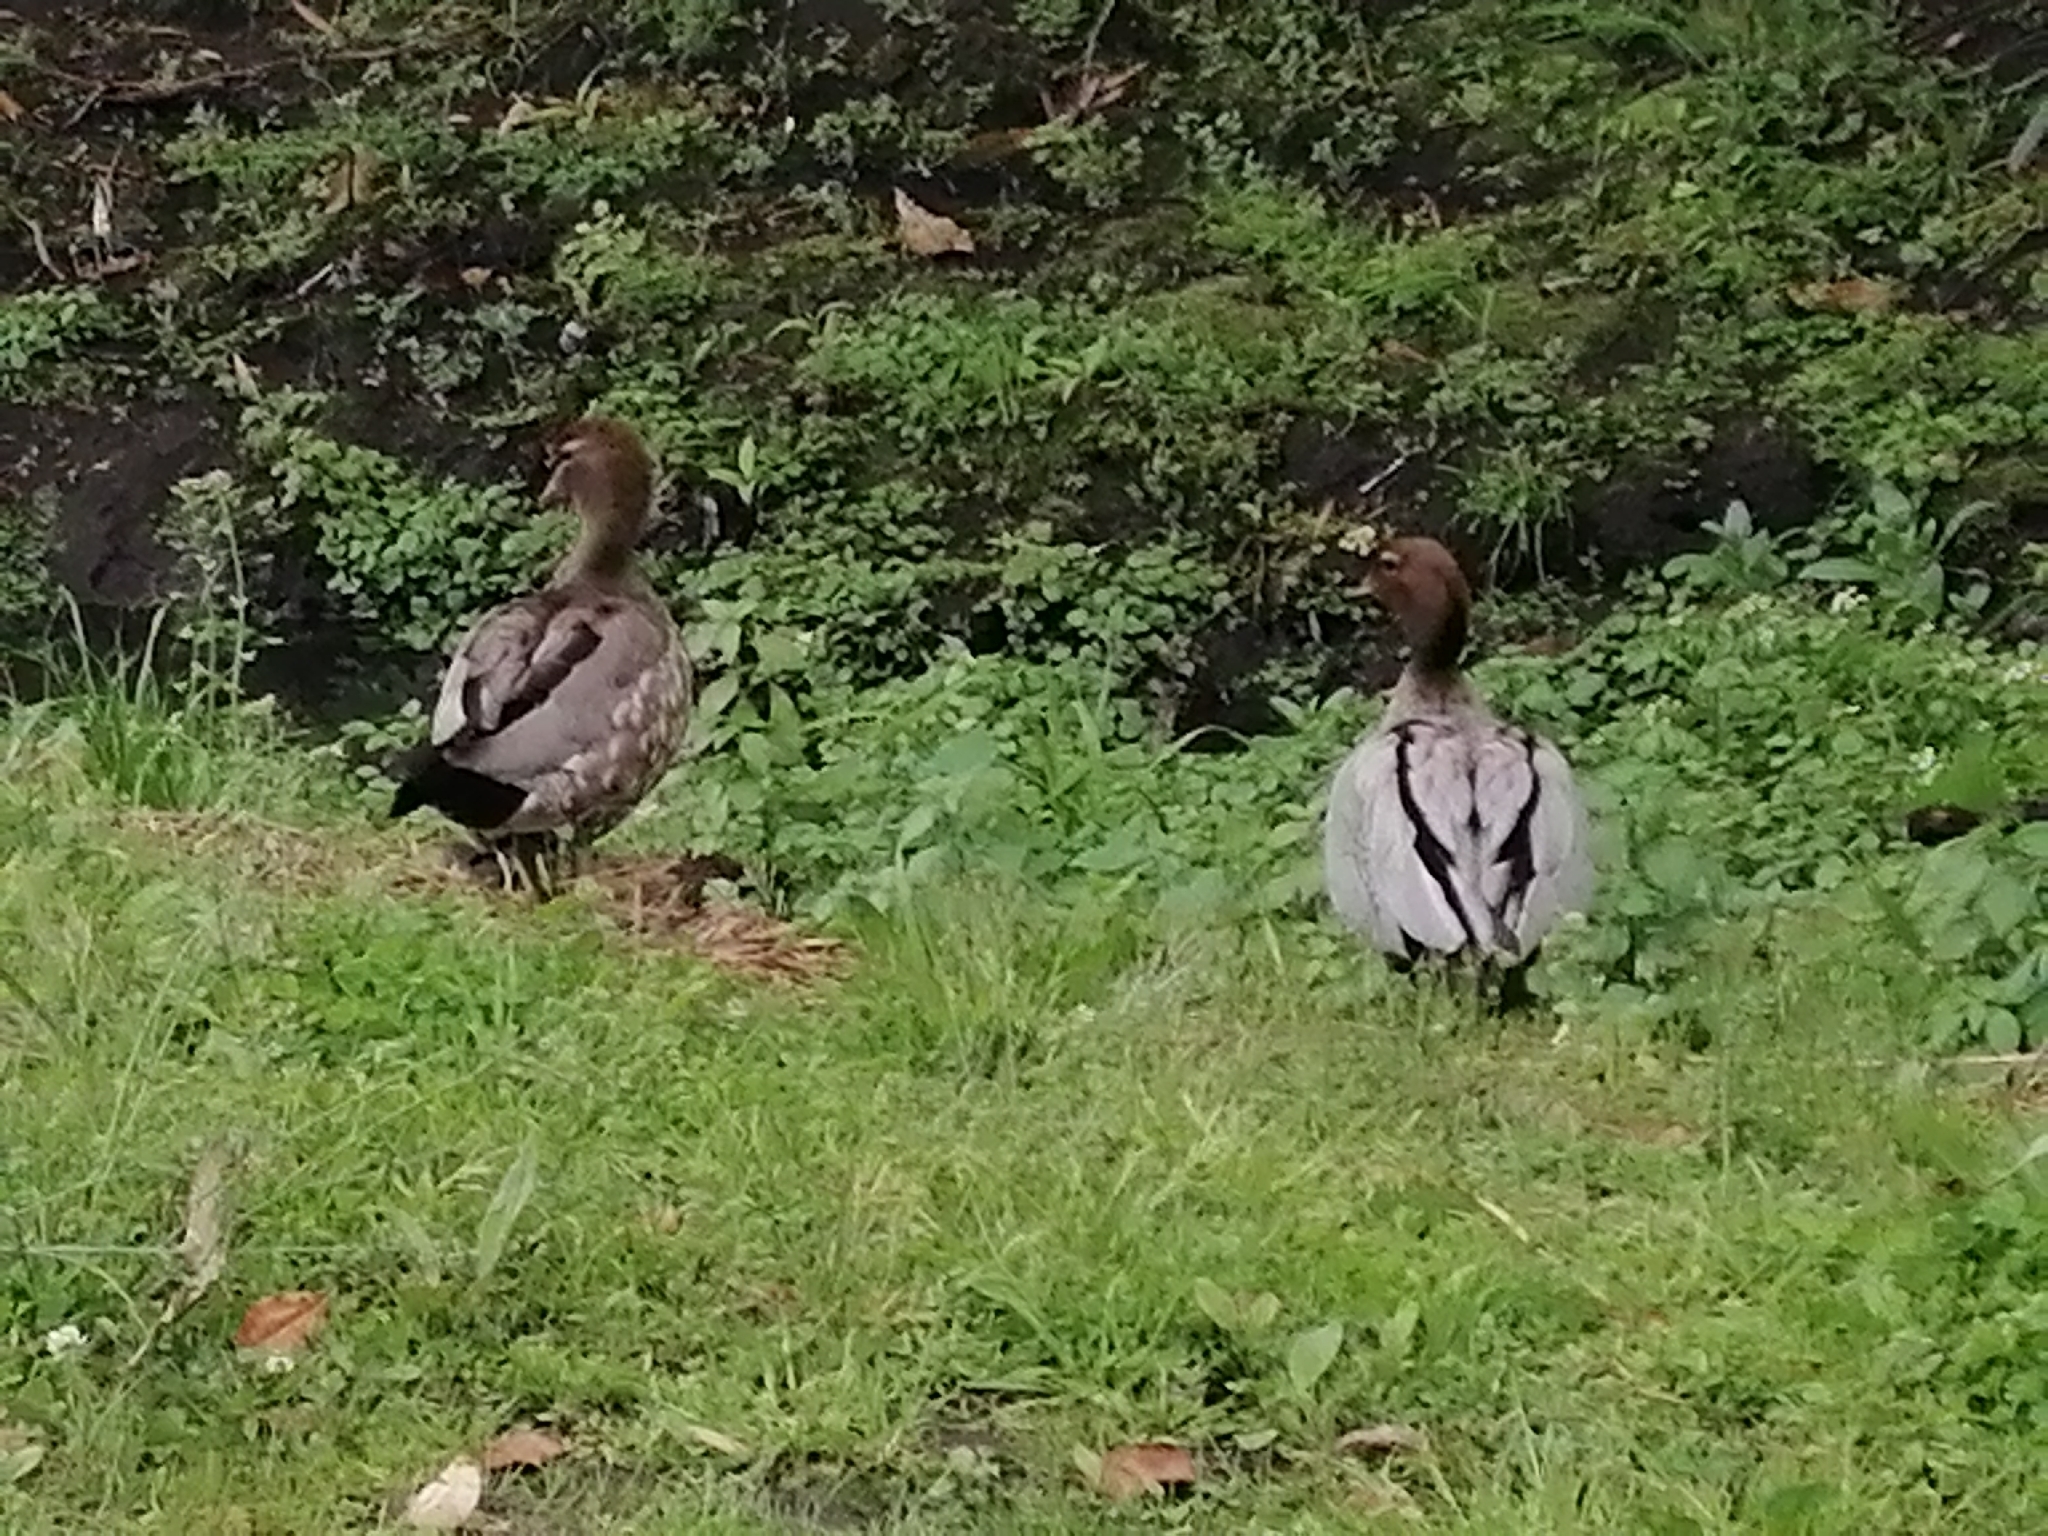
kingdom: Animalia
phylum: Chordata
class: Aves
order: Anseriformes
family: Anatidae
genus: Chenonetta
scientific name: Chenonetta jubata
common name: Maned duck
